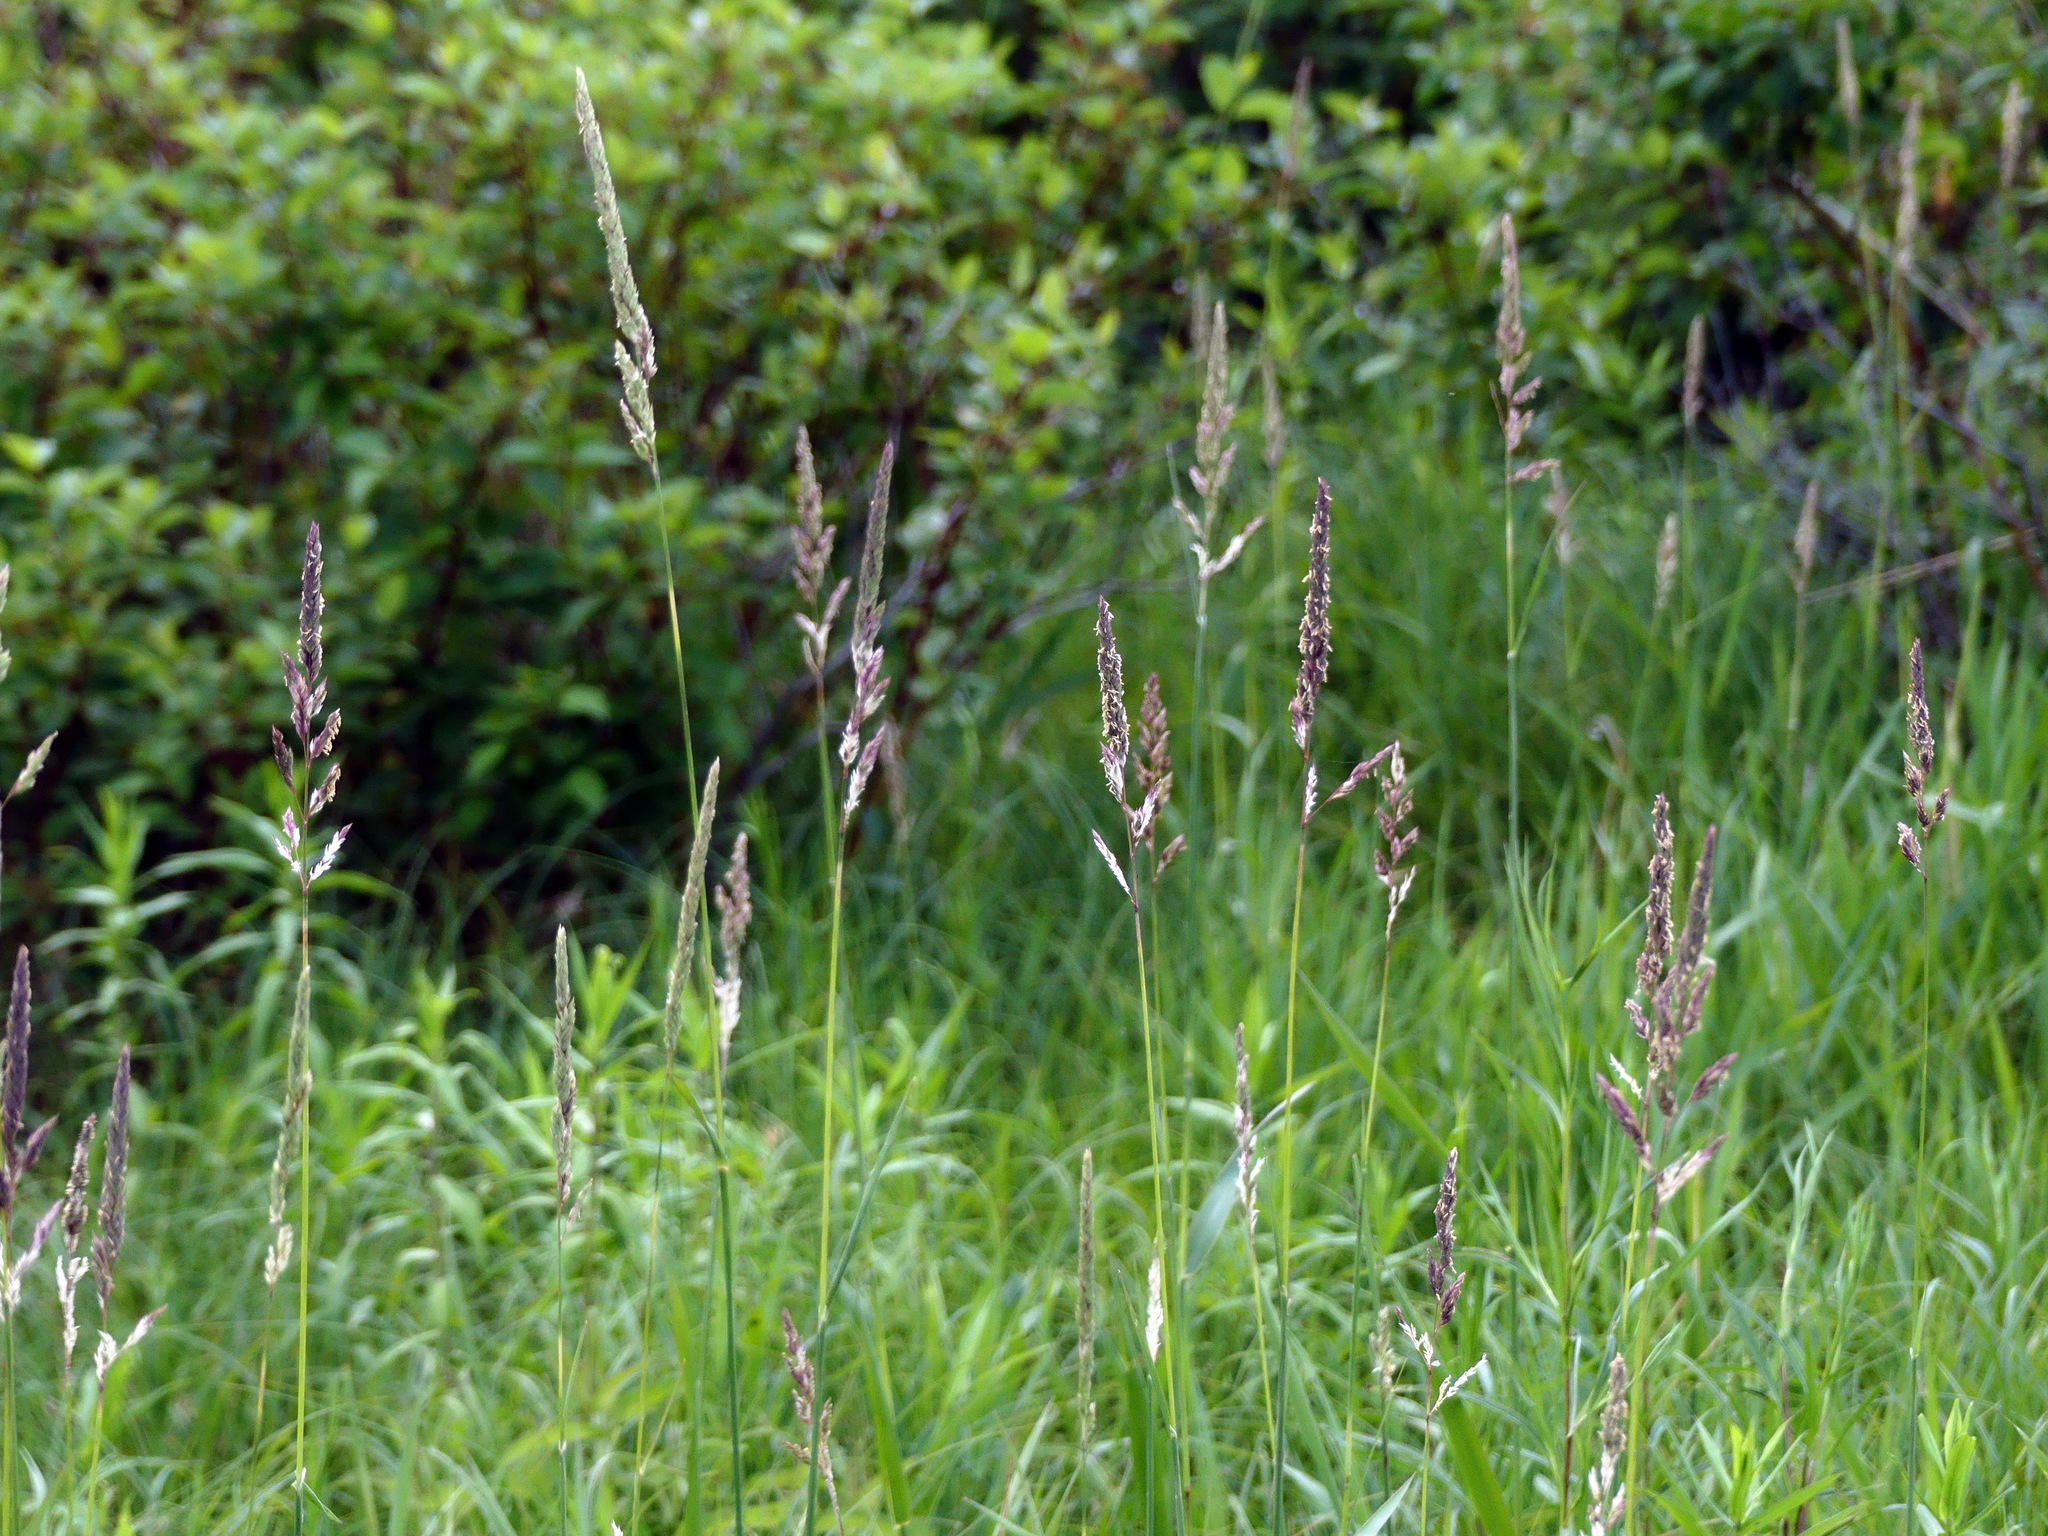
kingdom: Plantae
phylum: Tracheophyta
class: Liliopsida
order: Poales
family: Poaceae
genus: Phalaris
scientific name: Phalaris arundinacea
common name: Reed canary-grass
